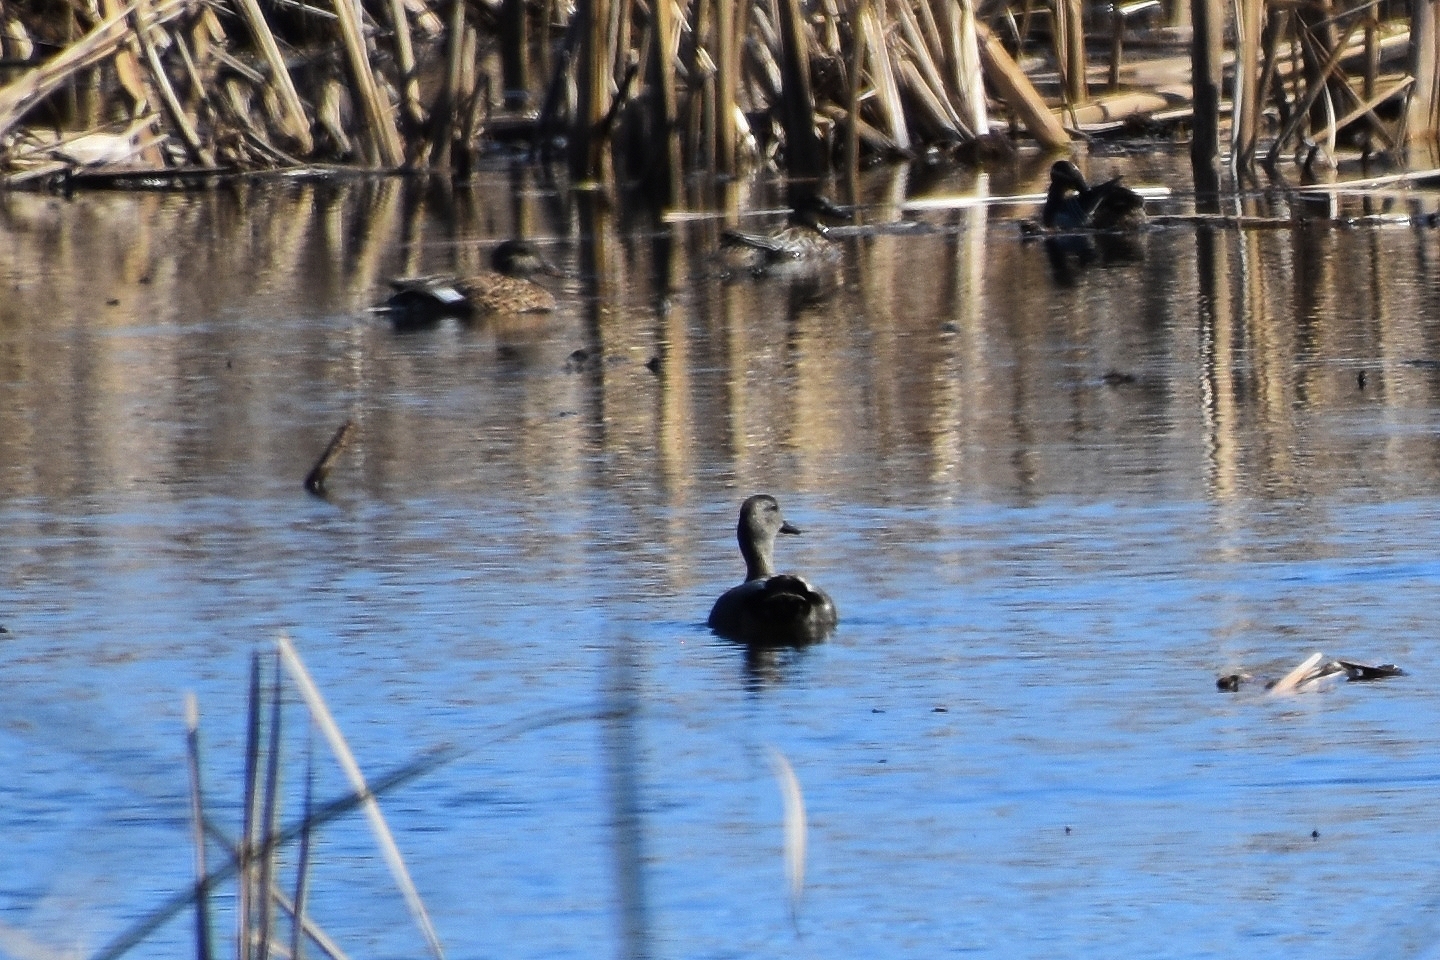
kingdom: Animalia
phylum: Chordata
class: Aves
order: Anseriformes
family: Anatidae
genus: Mareca
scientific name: Mareca strepera
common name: Gadwall
